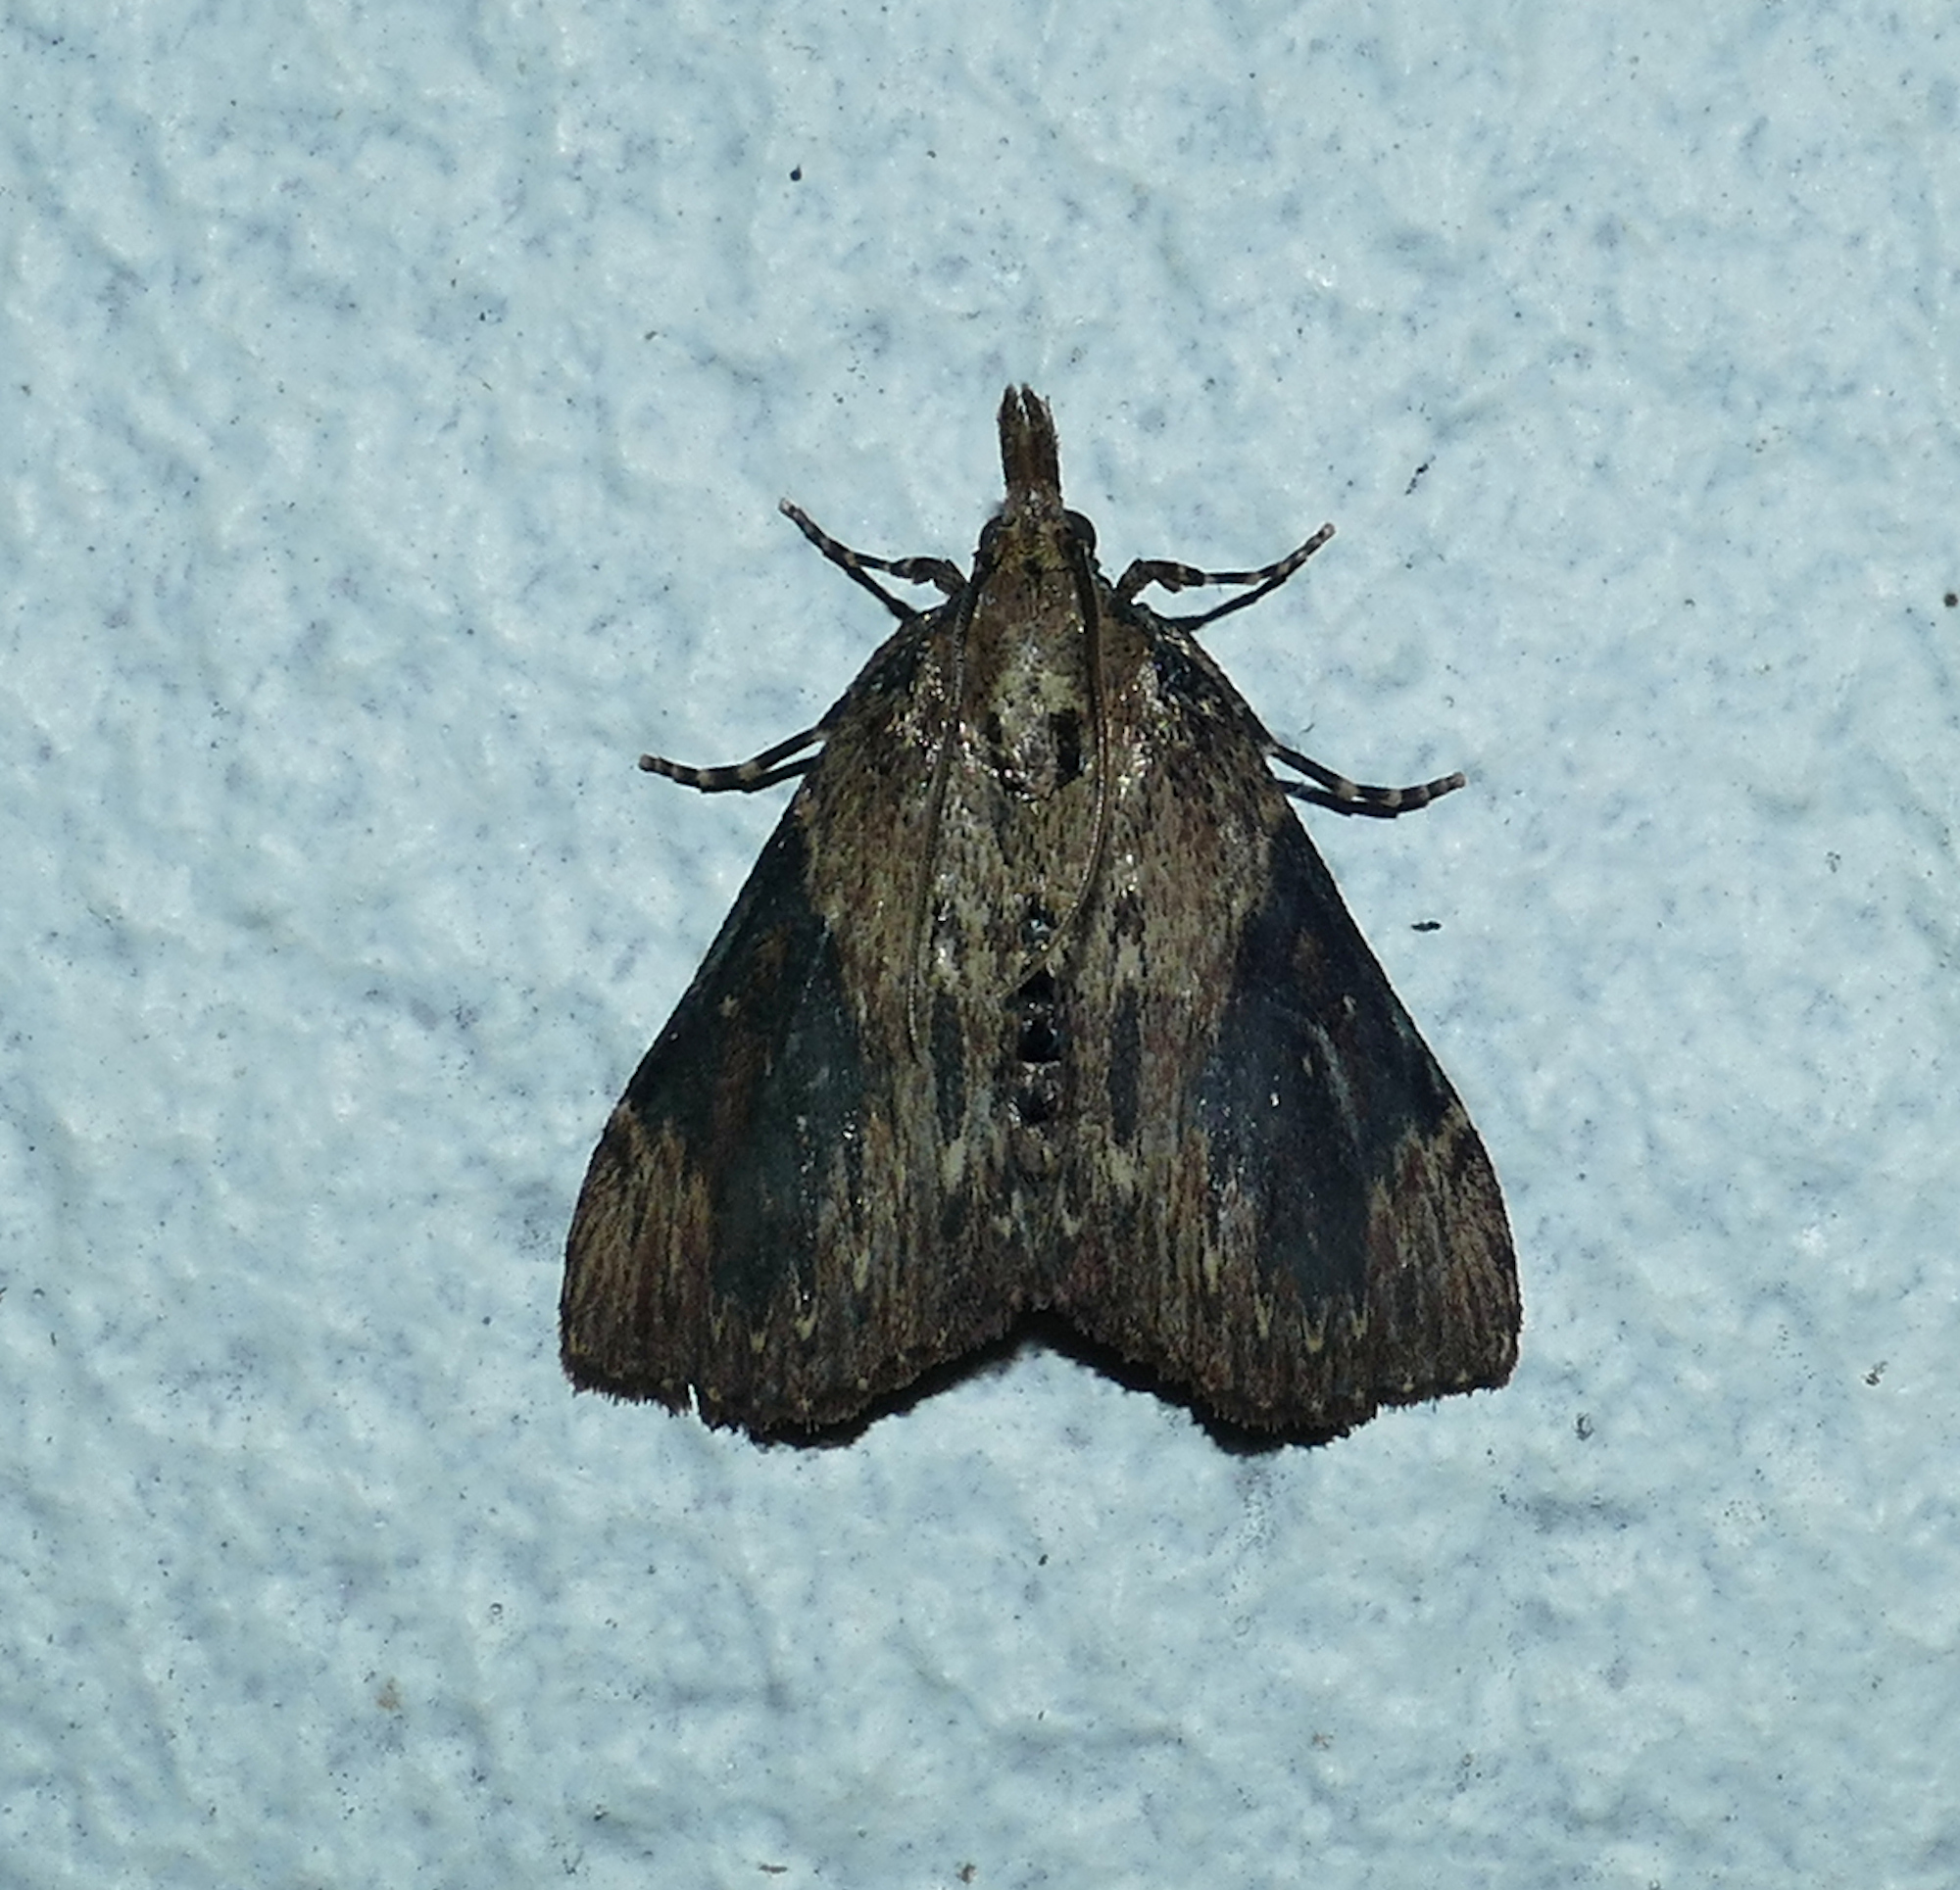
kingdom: Animalia
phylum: Arthropoda
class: Insecta
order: Lepidoptera
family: Pyralidae
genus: Omphalocera
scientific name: Omphalocera cariosa
